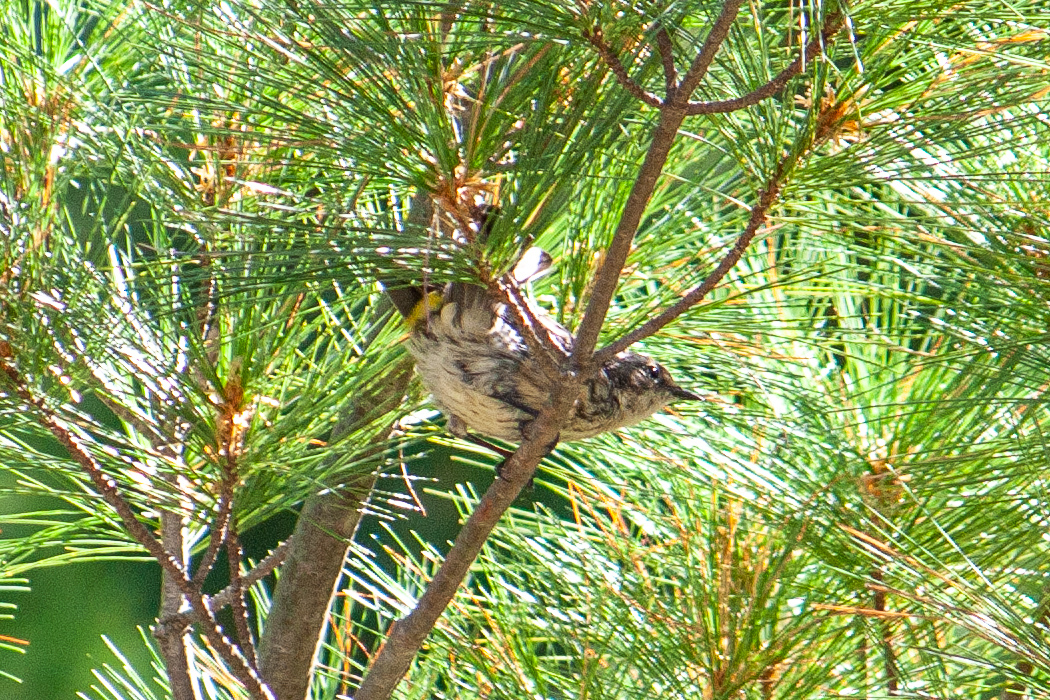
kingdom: Animalia
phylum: Chordata
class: Aves
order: Passeriformes
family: Parulidae
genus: Setophaga
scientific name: Setophaga coronata
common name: Myrtle warbler
